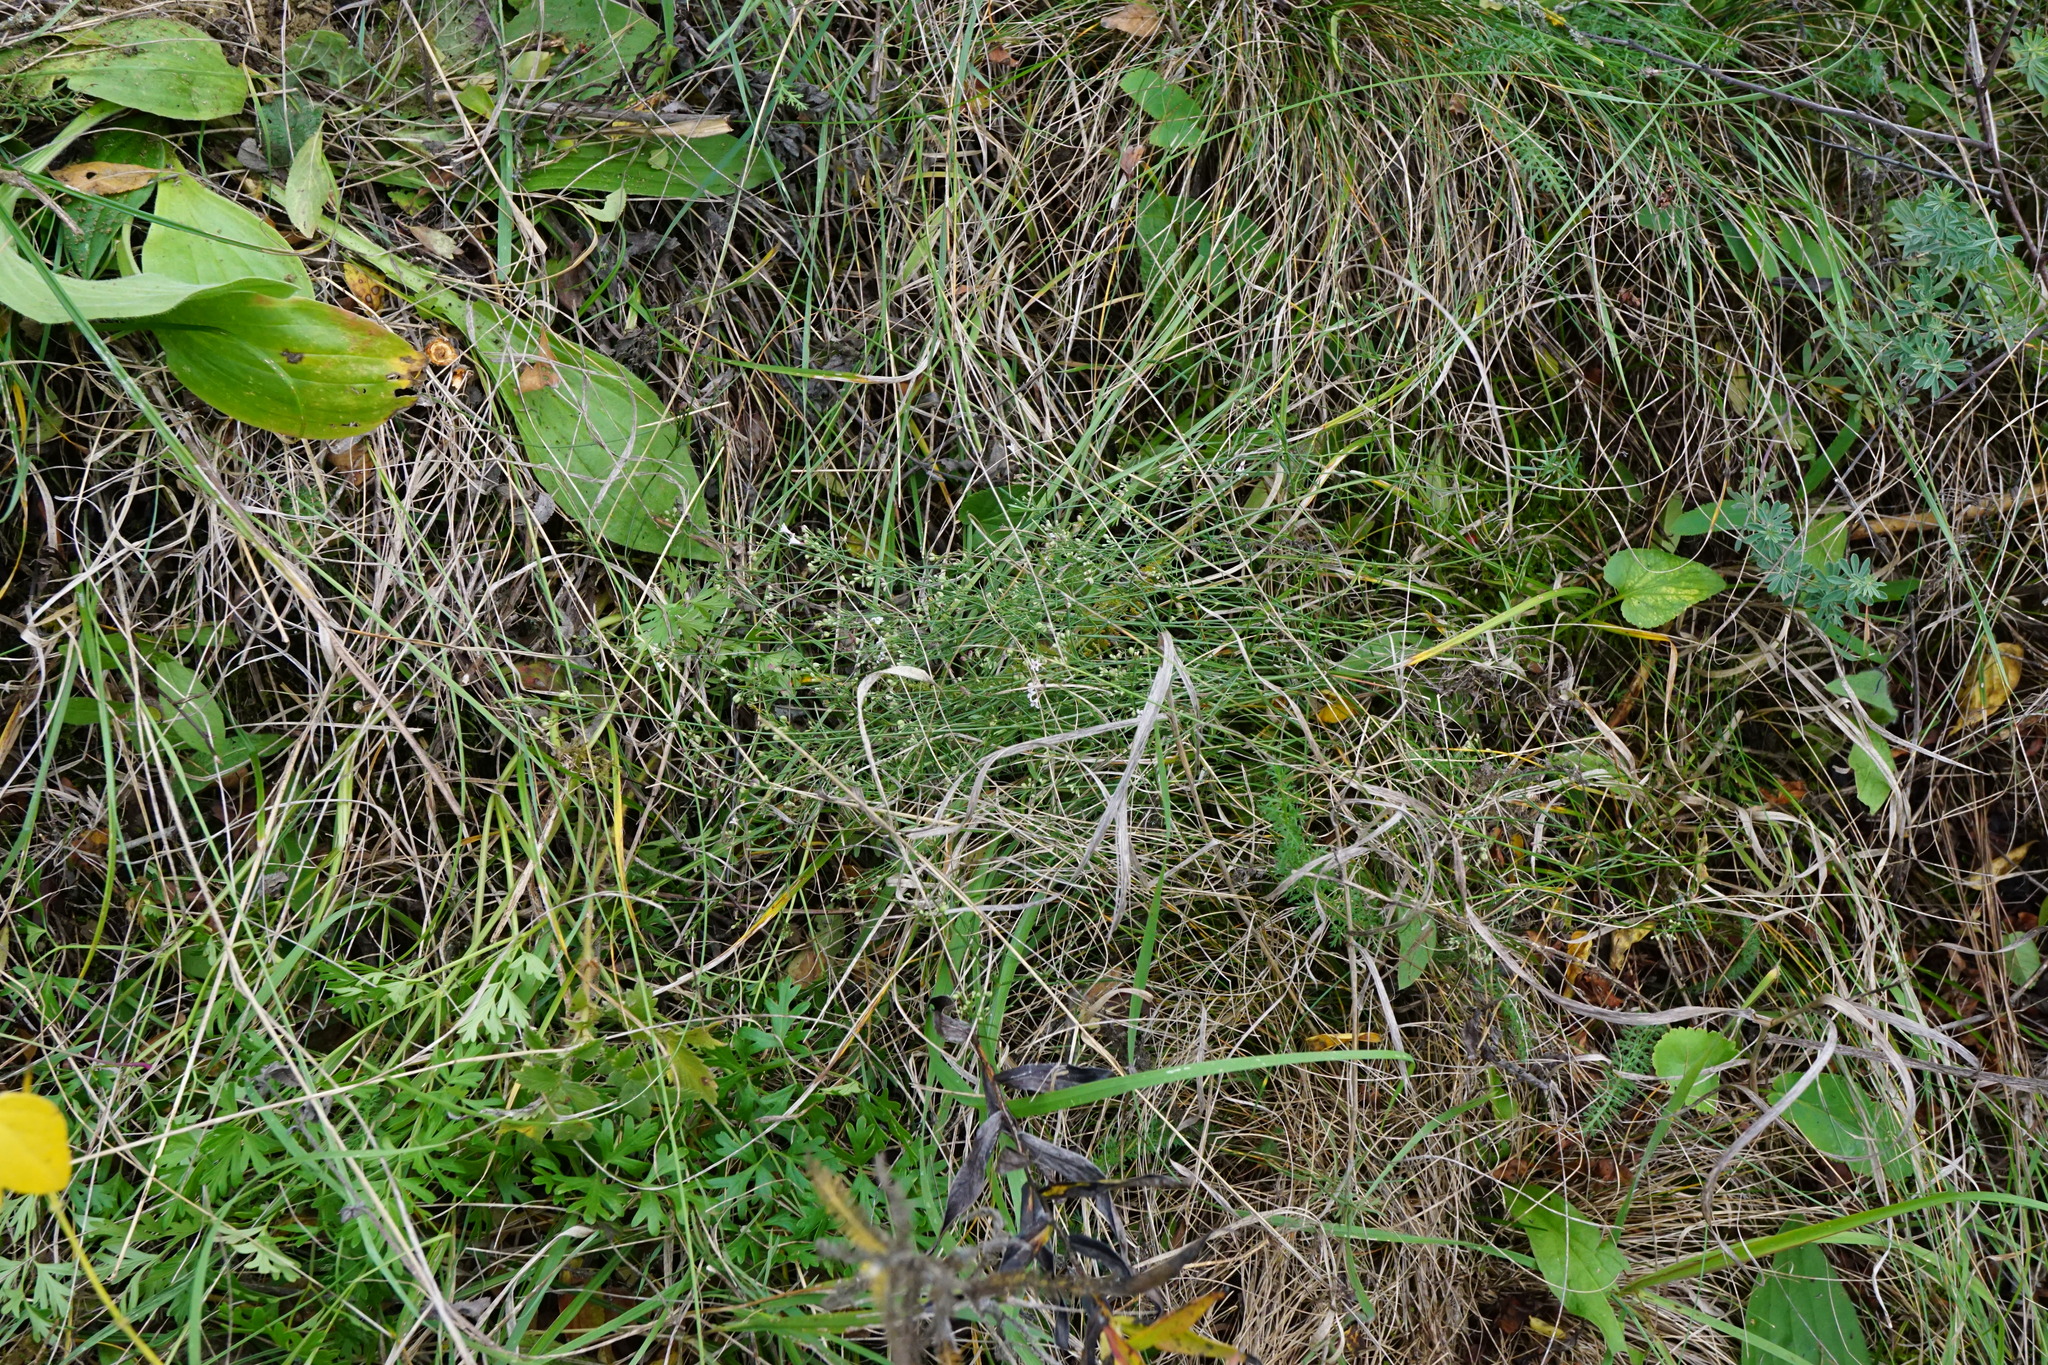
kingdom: Plantae
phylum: Tracheophyta
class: Magnoliopsida
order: Gentianales
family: Rubiaceae
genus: Cynanchica
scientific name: Cynanchica pyrenaica
